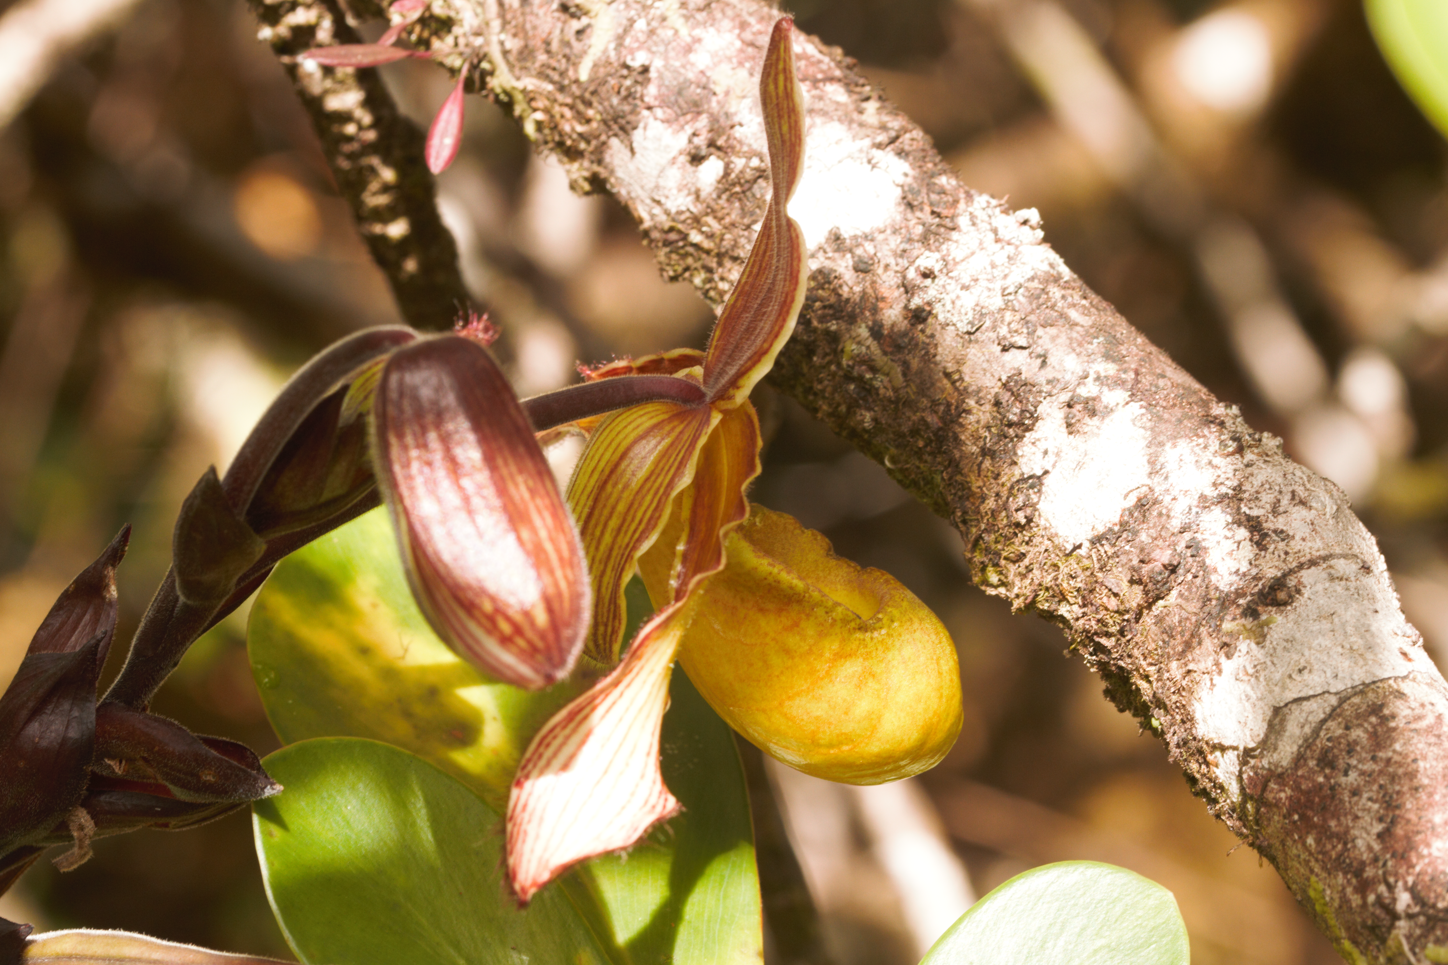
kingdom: Plantae
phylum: Tracheophyta
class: Liliopsida
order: Asparagales
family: Orchidaceae
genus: Phragmipedium
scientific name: Phragmipedium lindleyanum
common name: Lindley's phragmipedium
